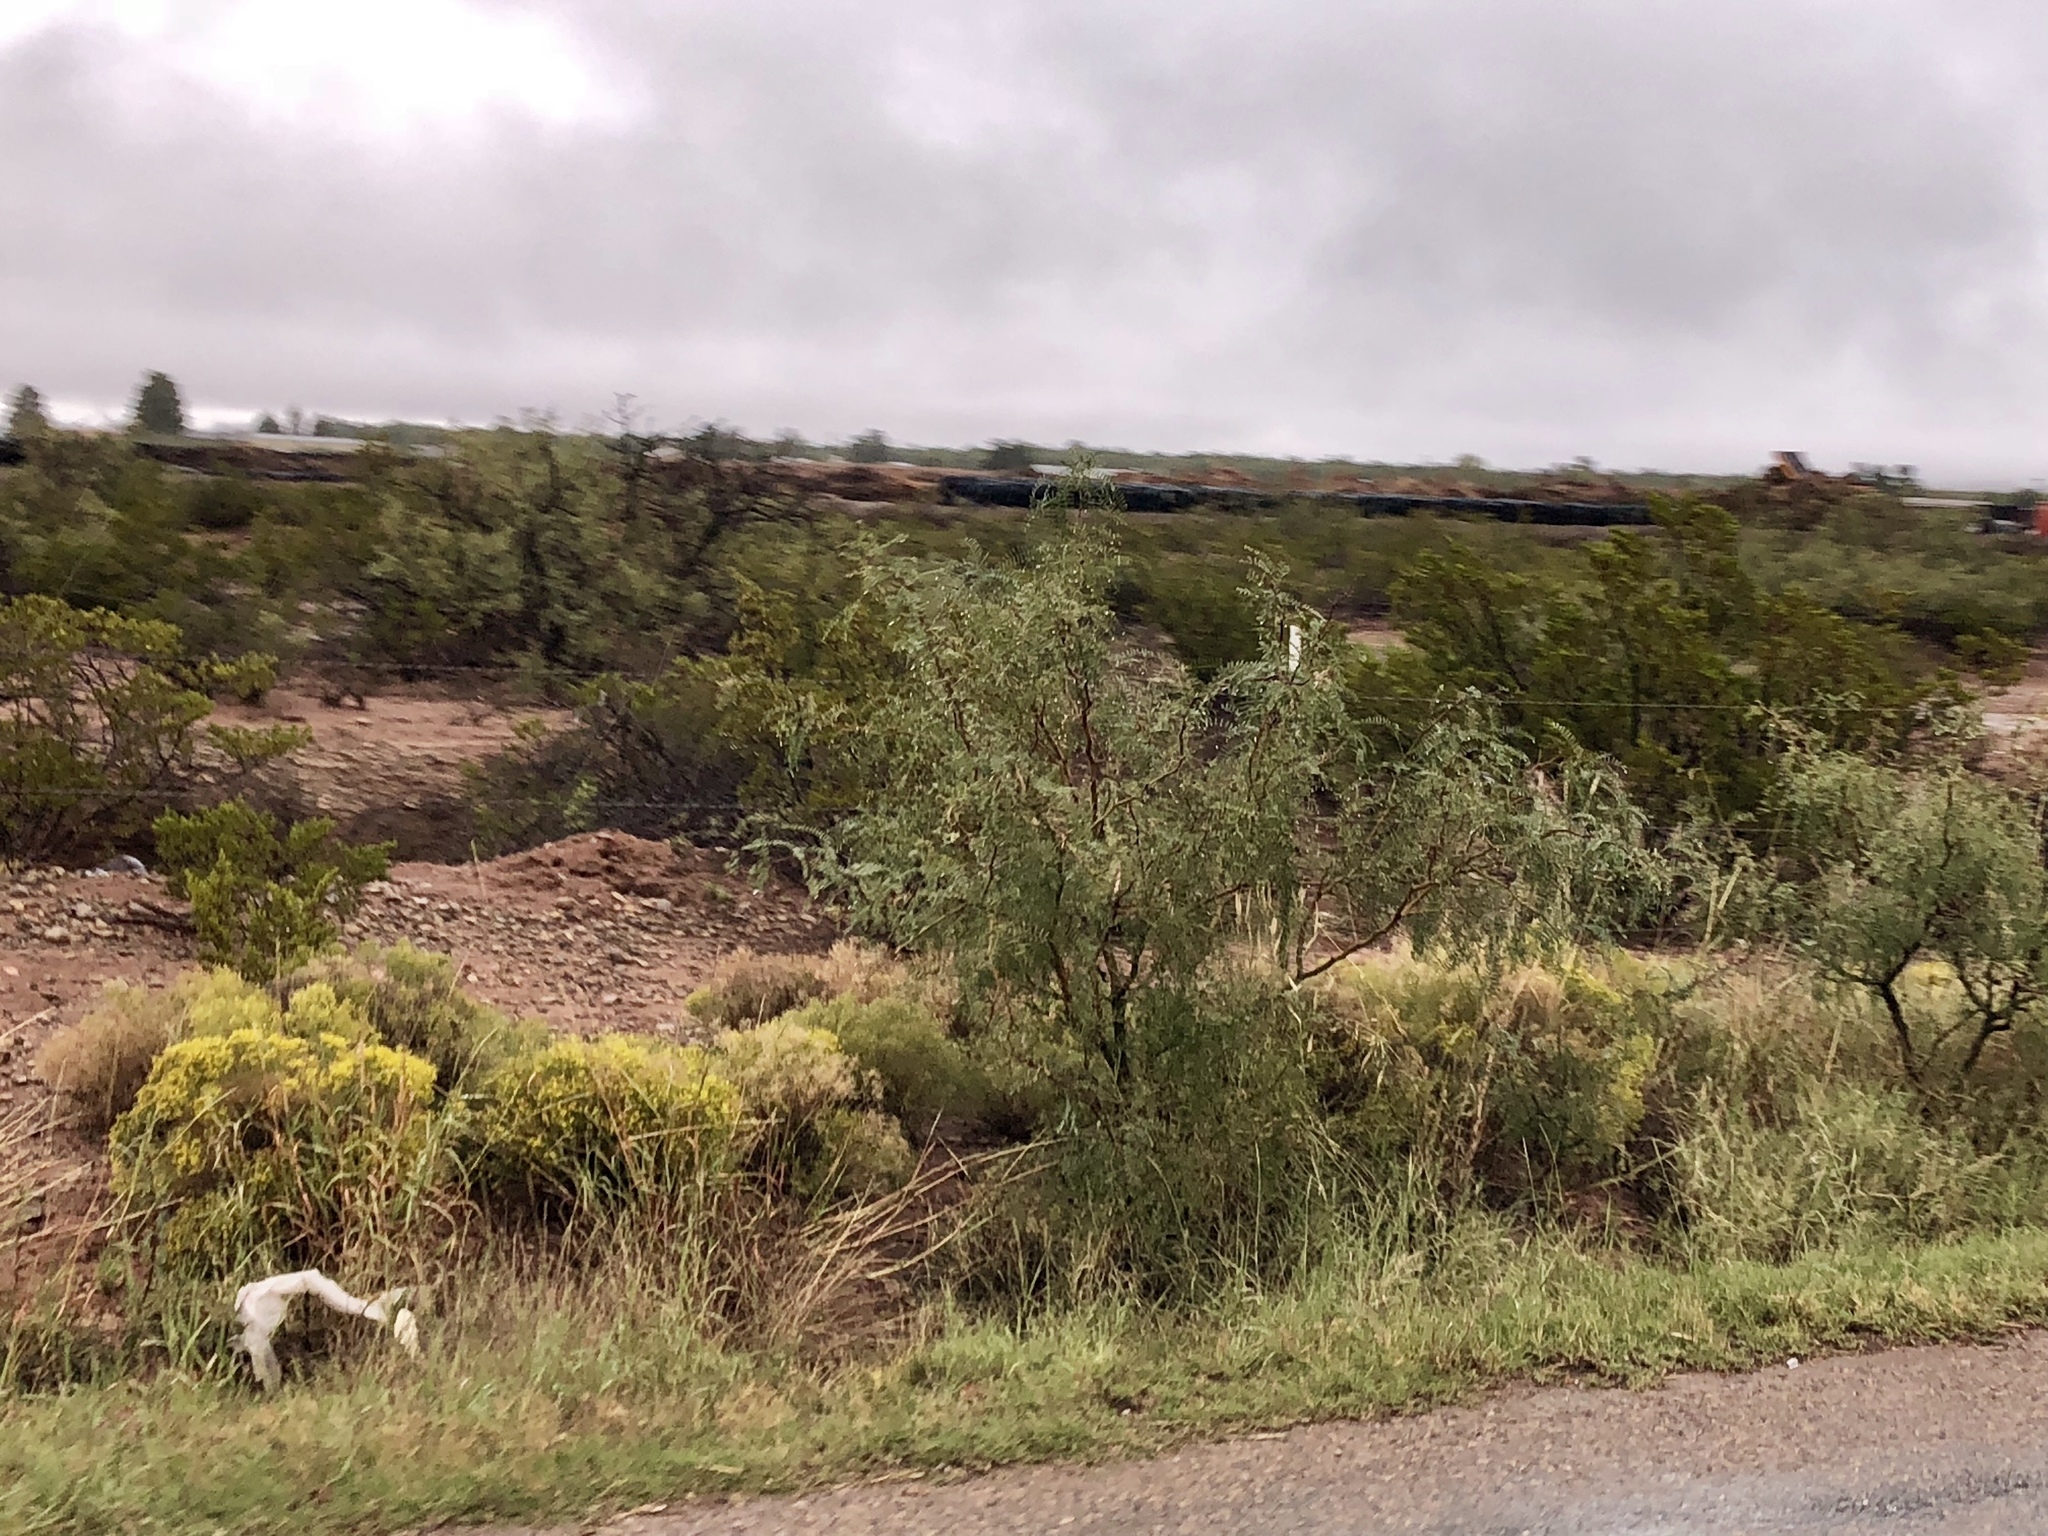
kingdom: Plantae
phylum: Tracheophyta
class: Magnoliopsida
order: Fabales
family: Fabaceae
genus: Prosopis
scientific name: Prosopis glandulosa
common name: Honey mesquite
